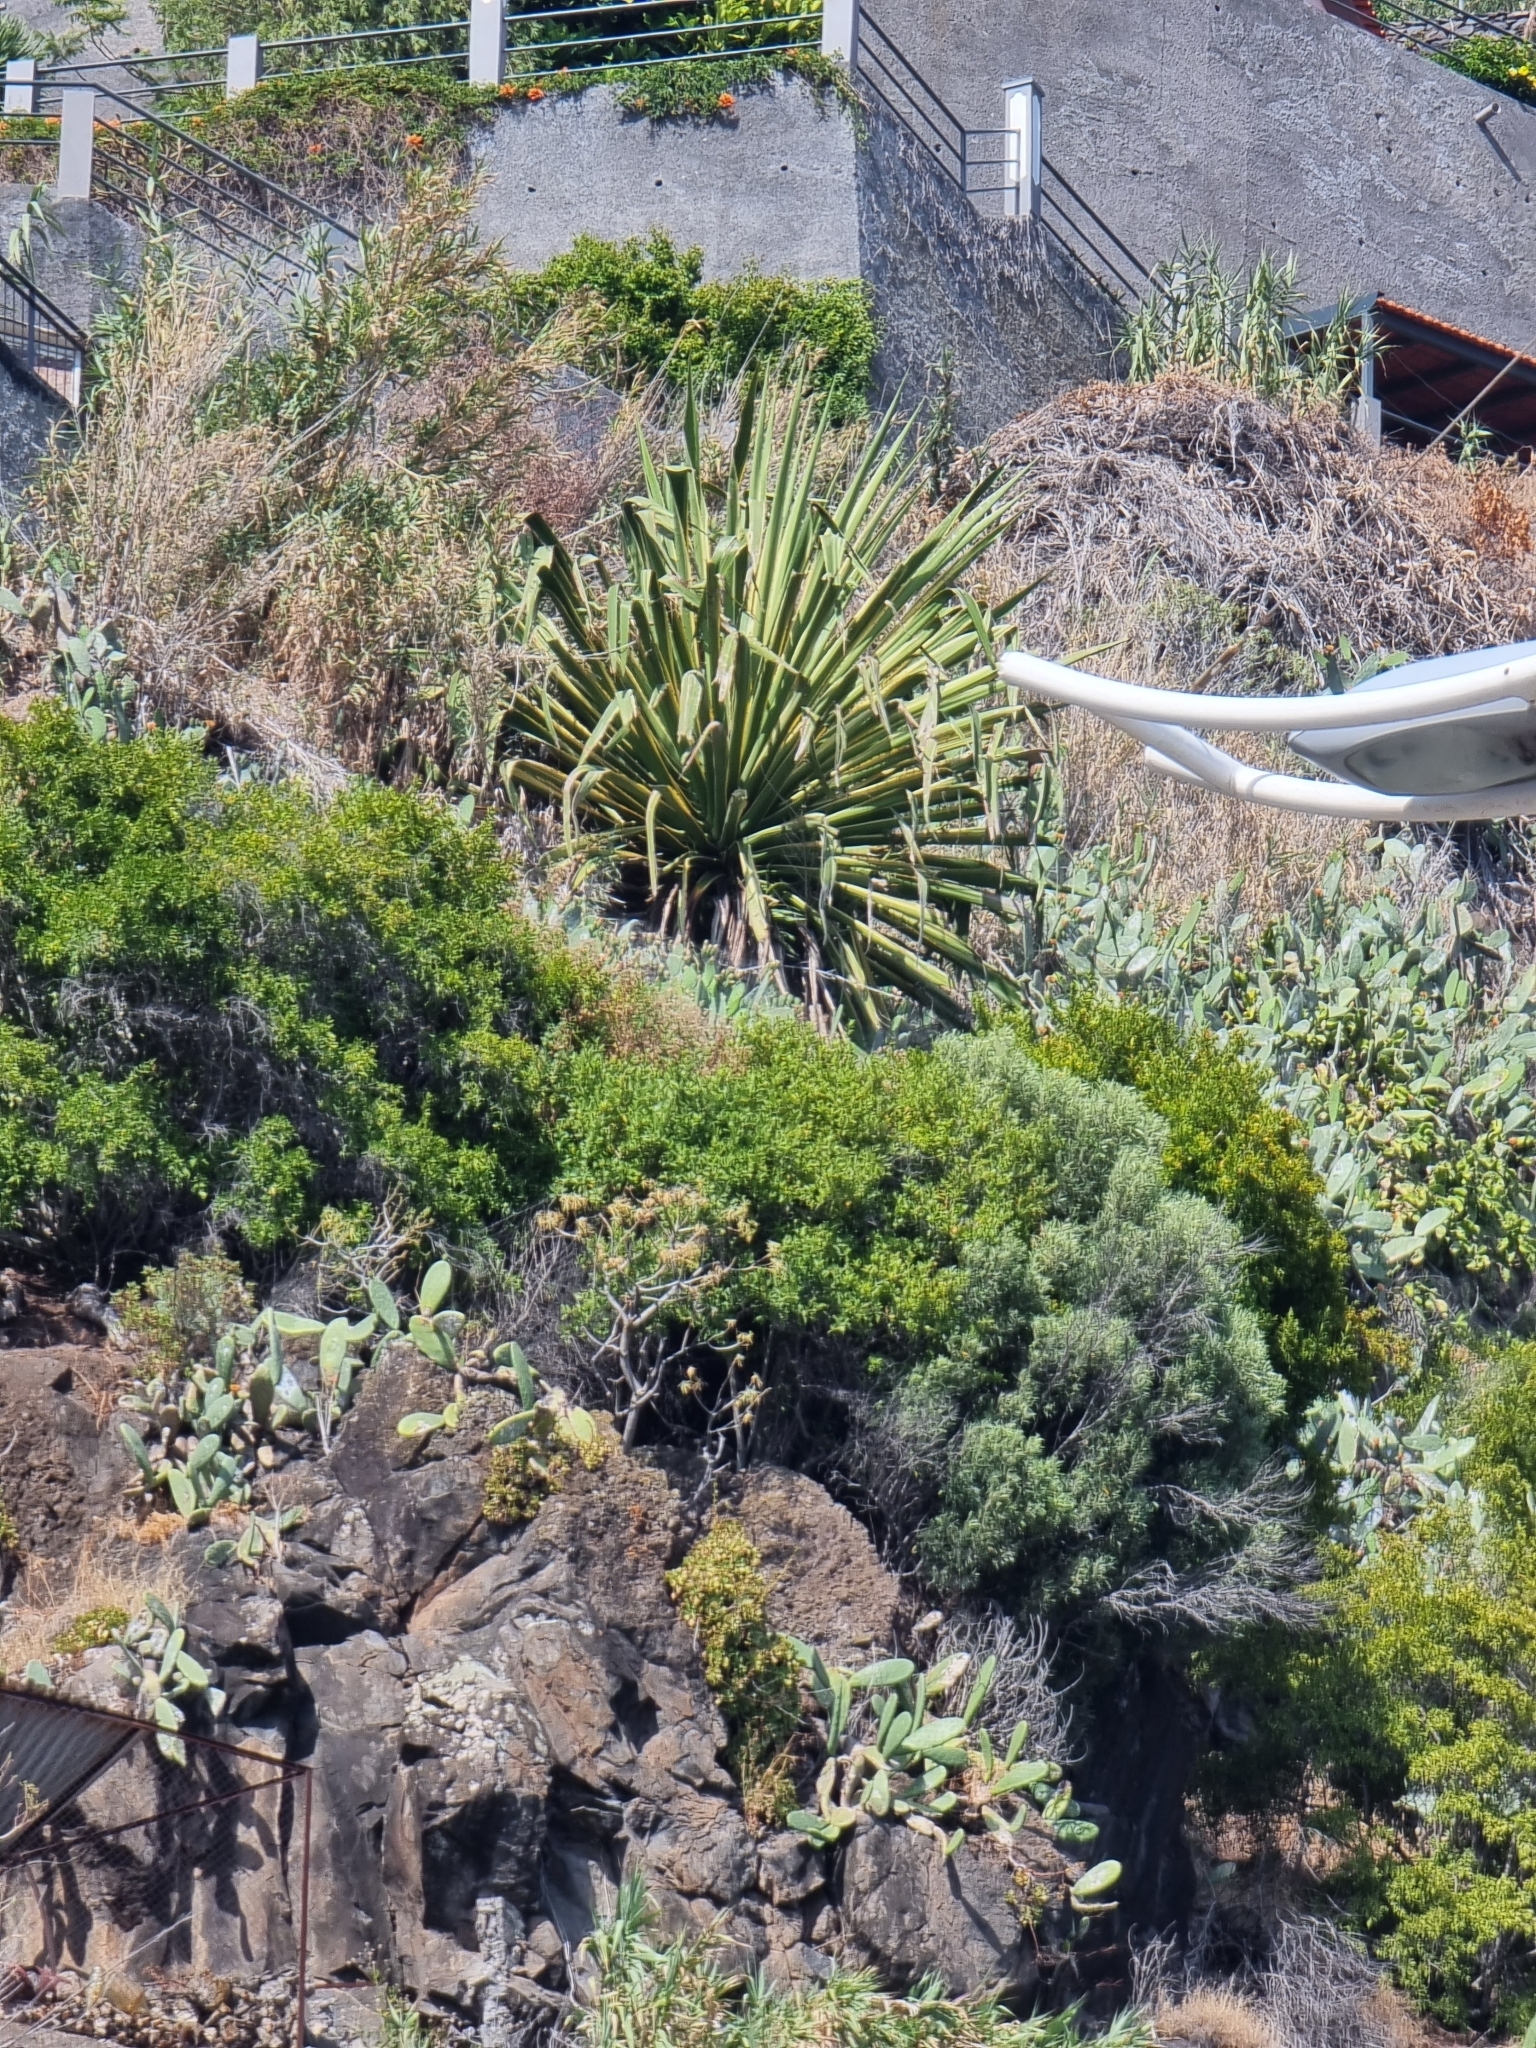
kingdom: Plantae
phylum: Tracheophyta
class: Liliopsida
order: Asparagales
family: Asparagaceae
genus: Furcraea
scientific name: Furcraea selloana
